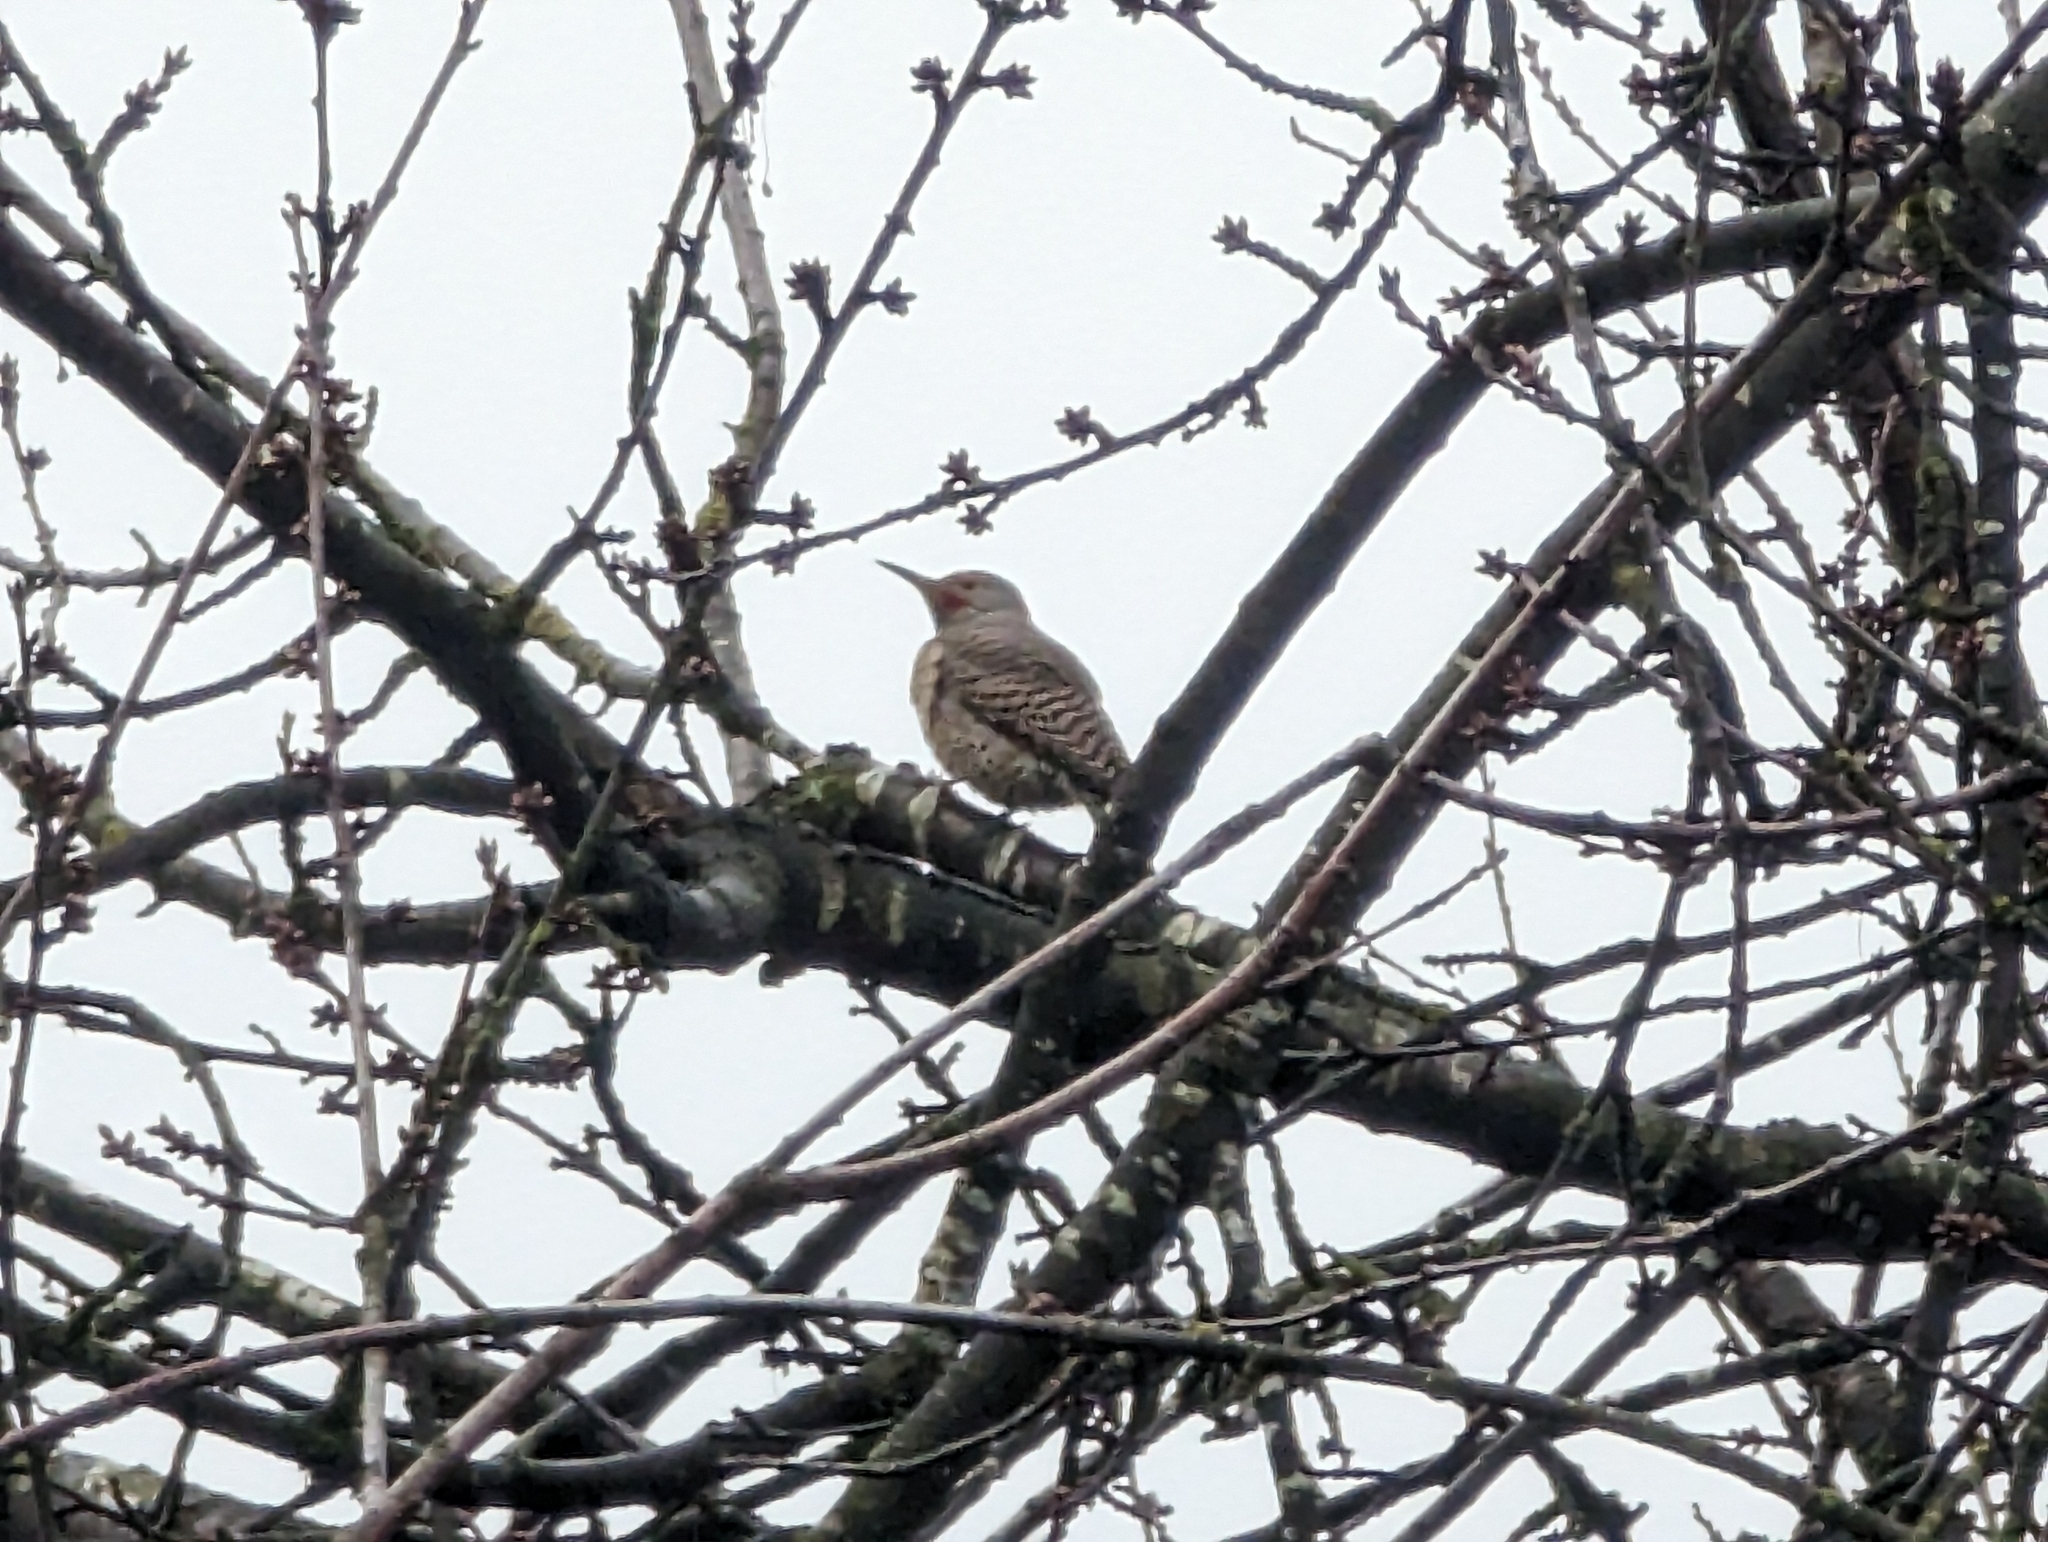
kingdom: Animalia
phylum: Chordata
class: Aves
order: Piciformes
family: Picidae
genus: Colaptes
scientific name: Colaptes auratus
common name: Northern flicker
